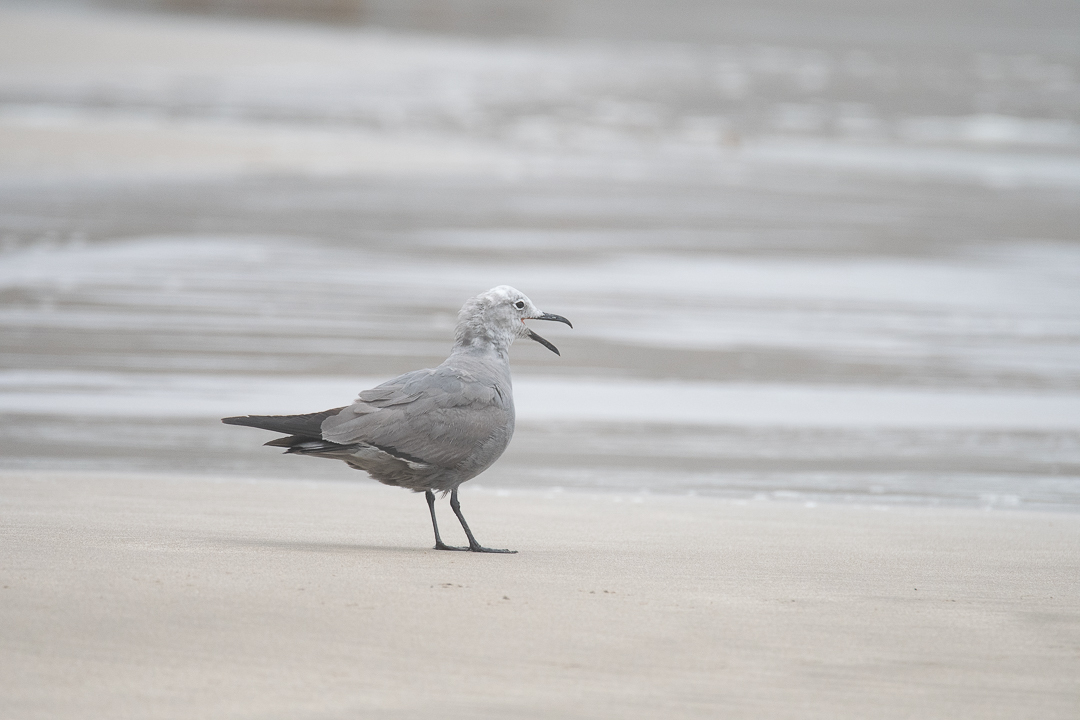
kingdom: Animalia
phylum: Chordata
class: Aves
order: Charadriiformes
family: Laridae
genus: Leucophaeus
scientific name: Leucophaeus modestus
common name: Gray gull
